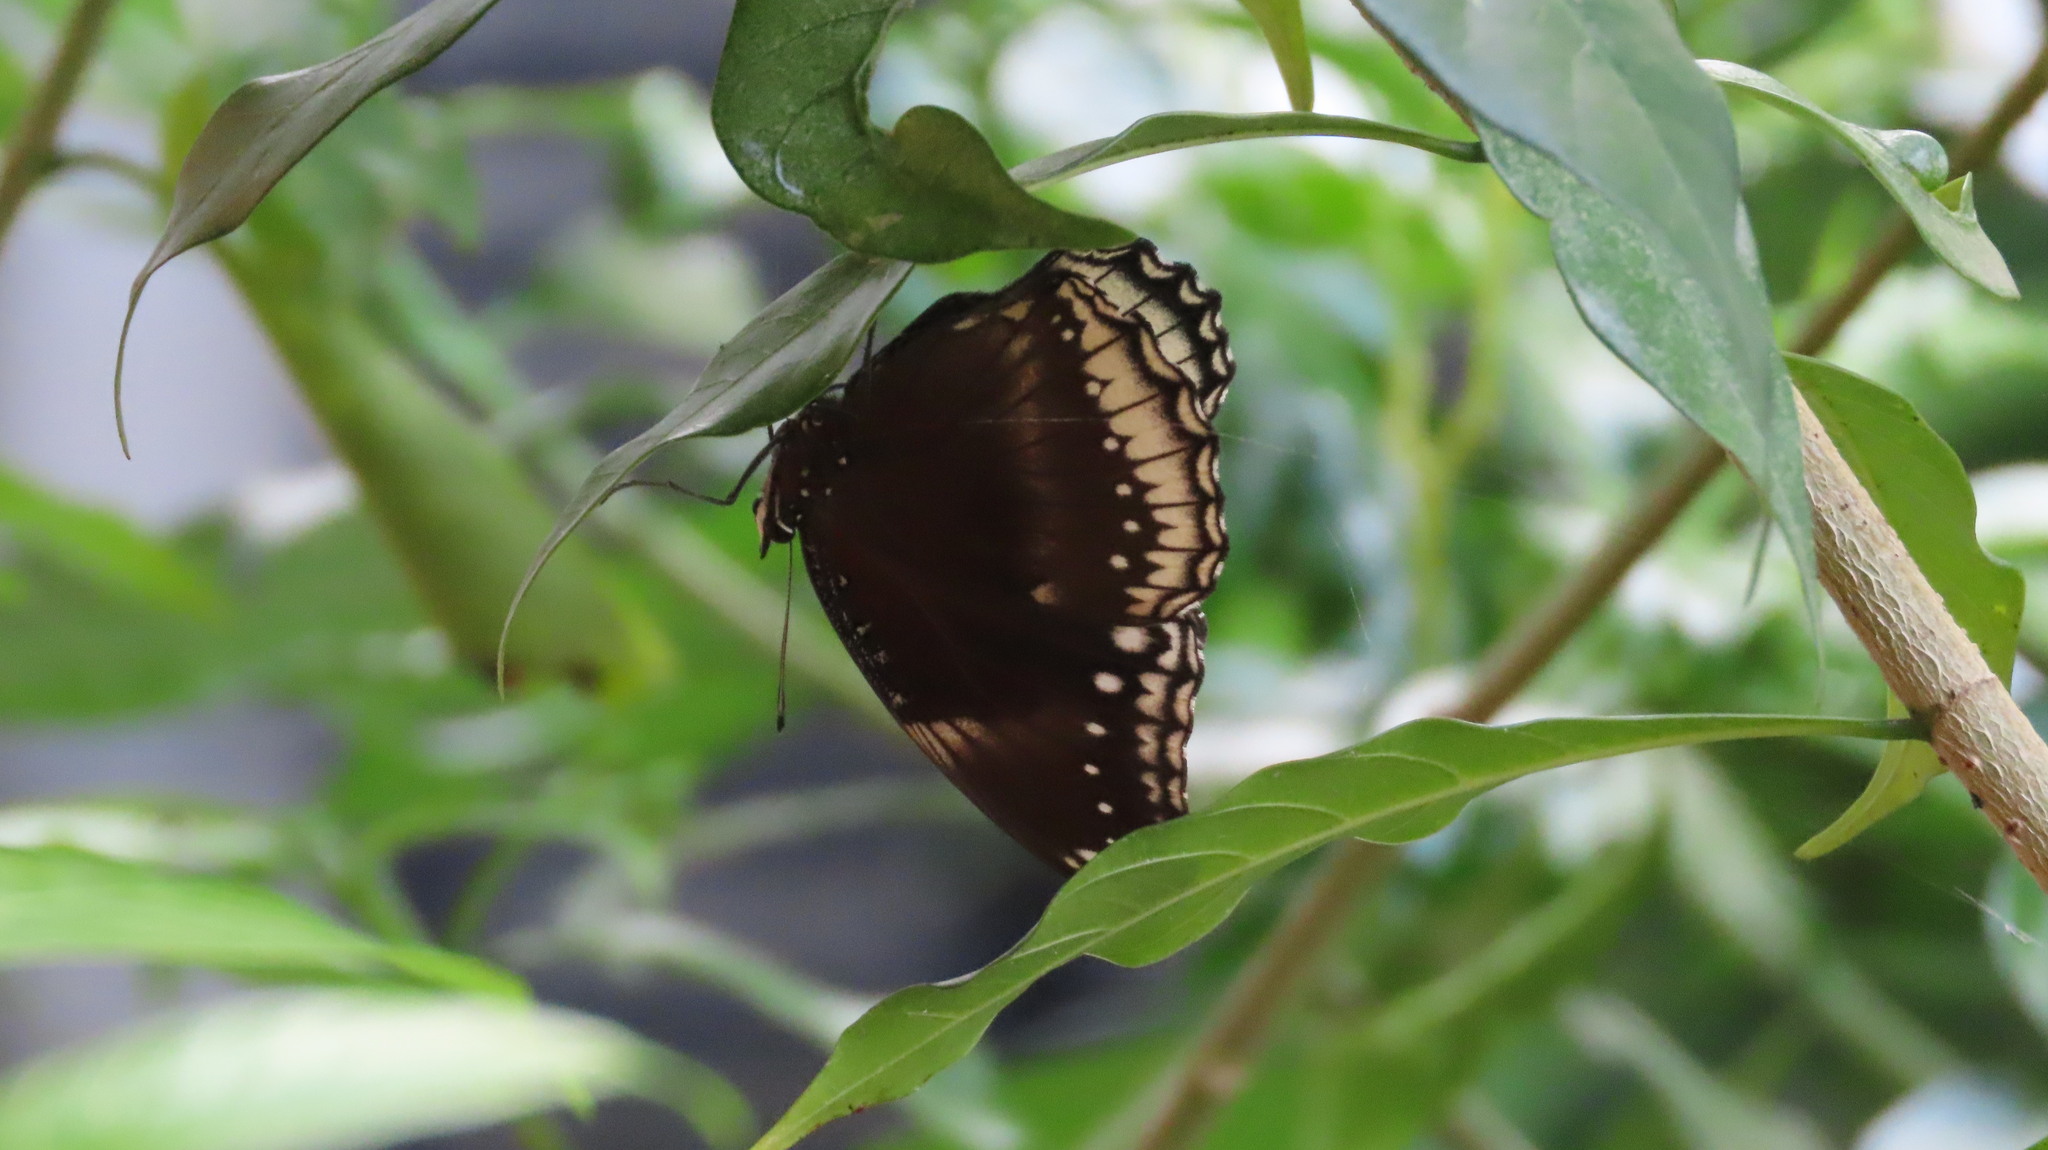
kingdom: Animalia
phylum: Arthropoda
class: Insecta
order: Lepidoptera
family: Nymphalidae
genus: Hypolimnas
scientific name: Hypolimnas bolina
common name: Great eggfly
